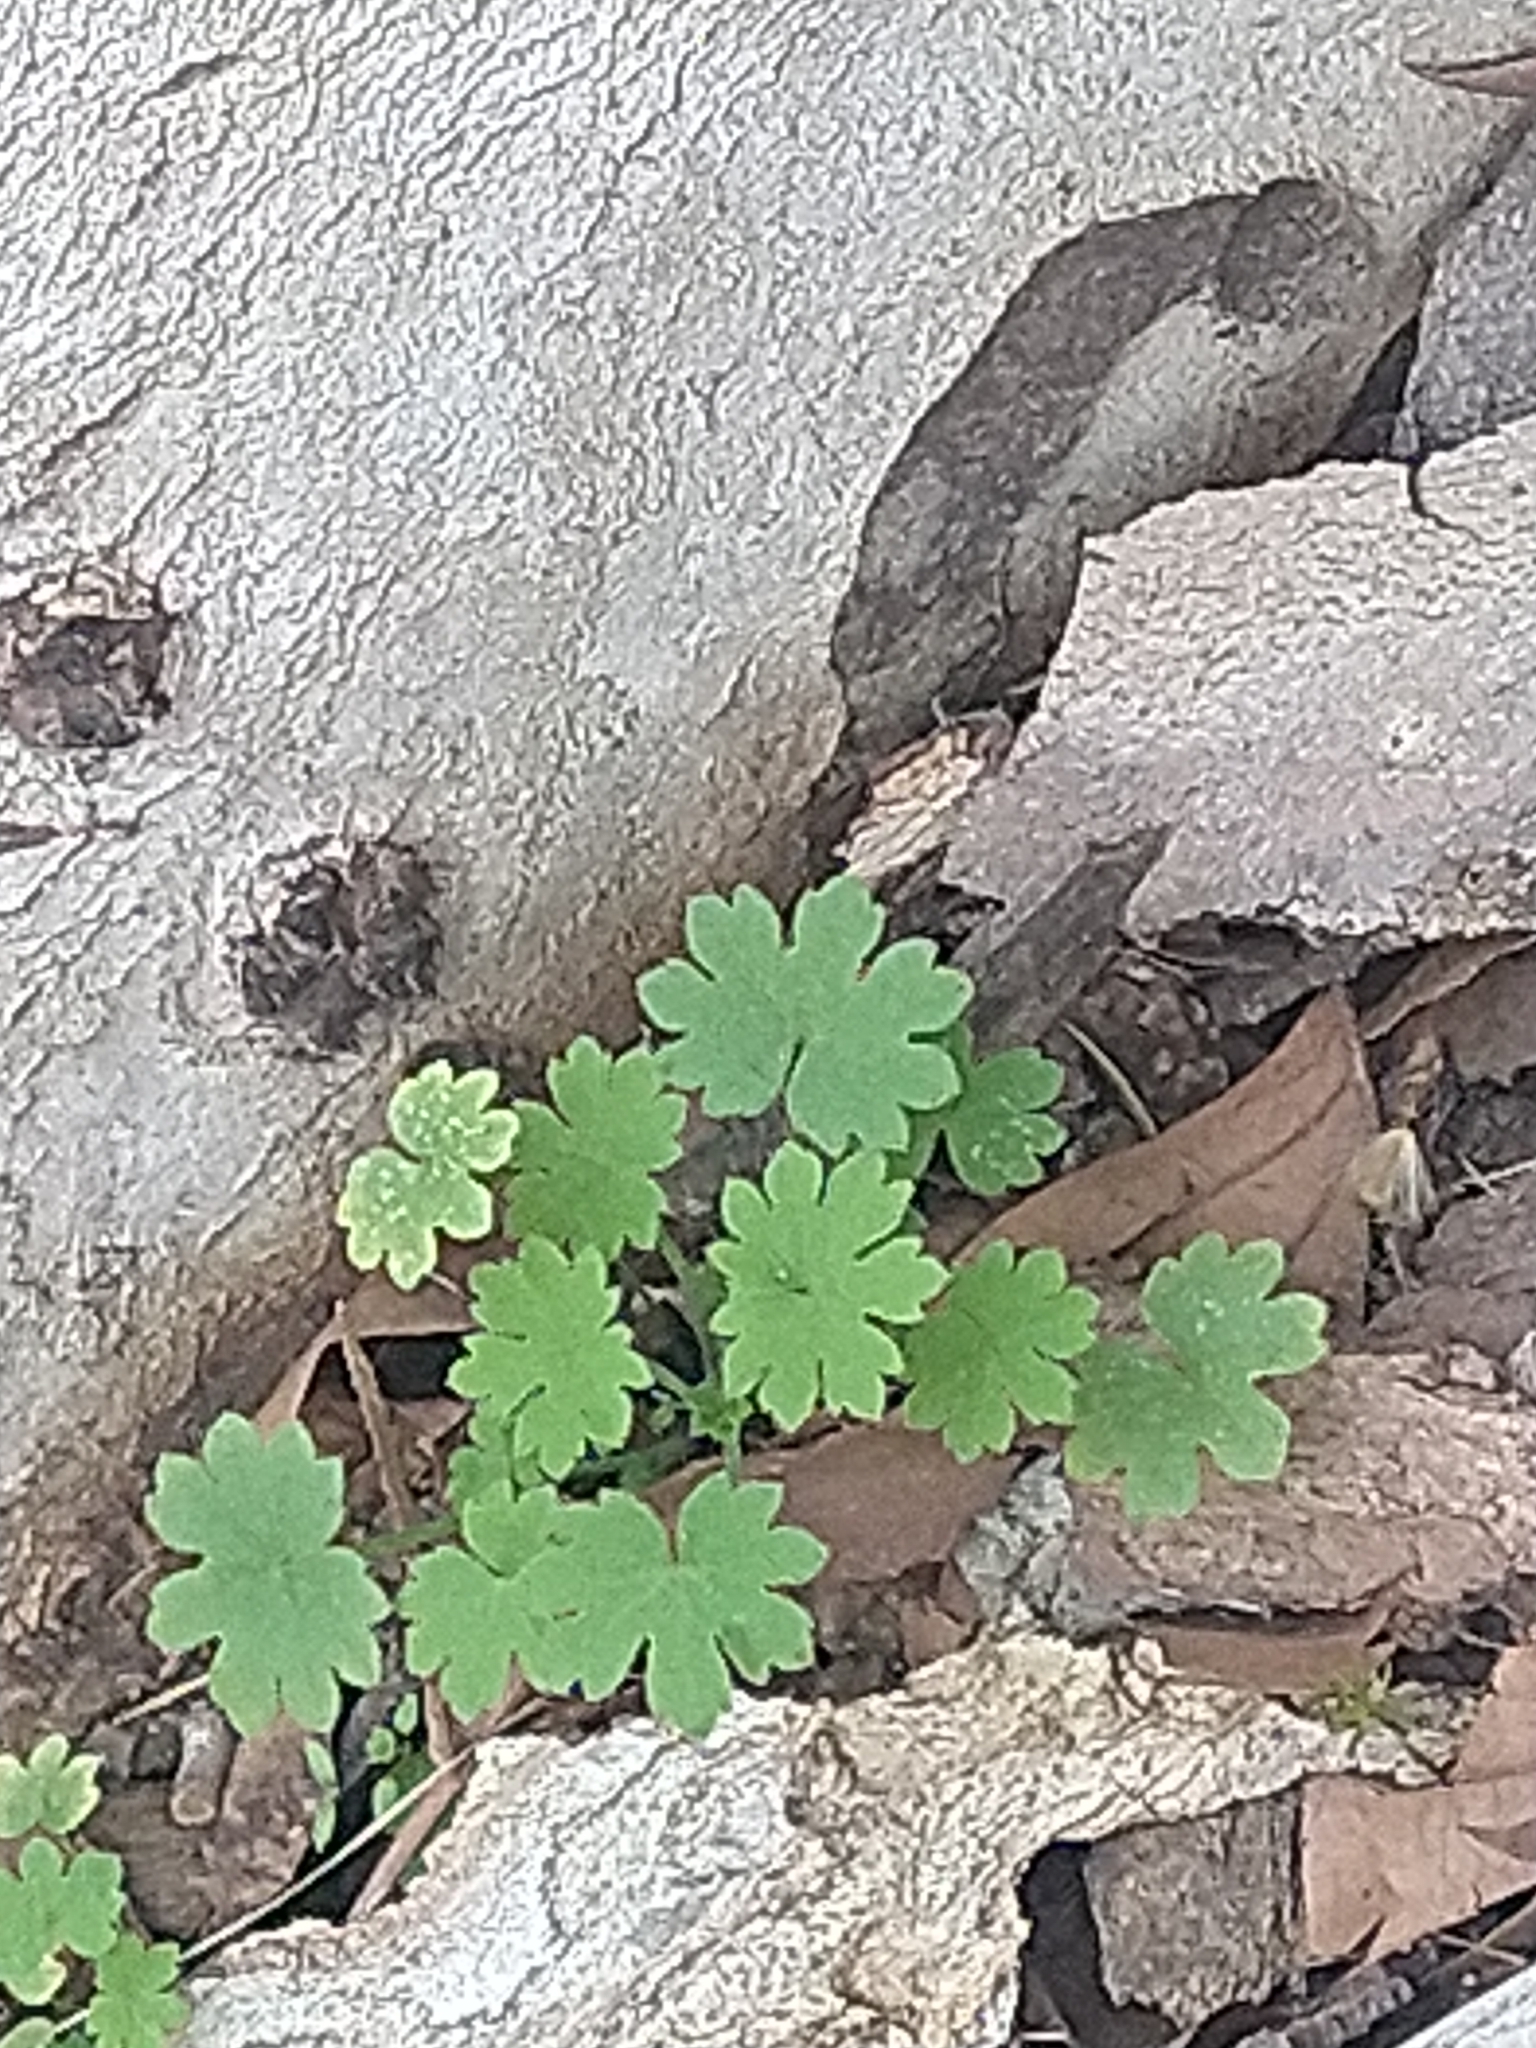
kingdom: Plantae
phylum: Tracheophyta
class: Magnoliopsida
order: Apiales
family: Apiaceae
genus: Bowlesia
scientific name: Bowlesia incana
